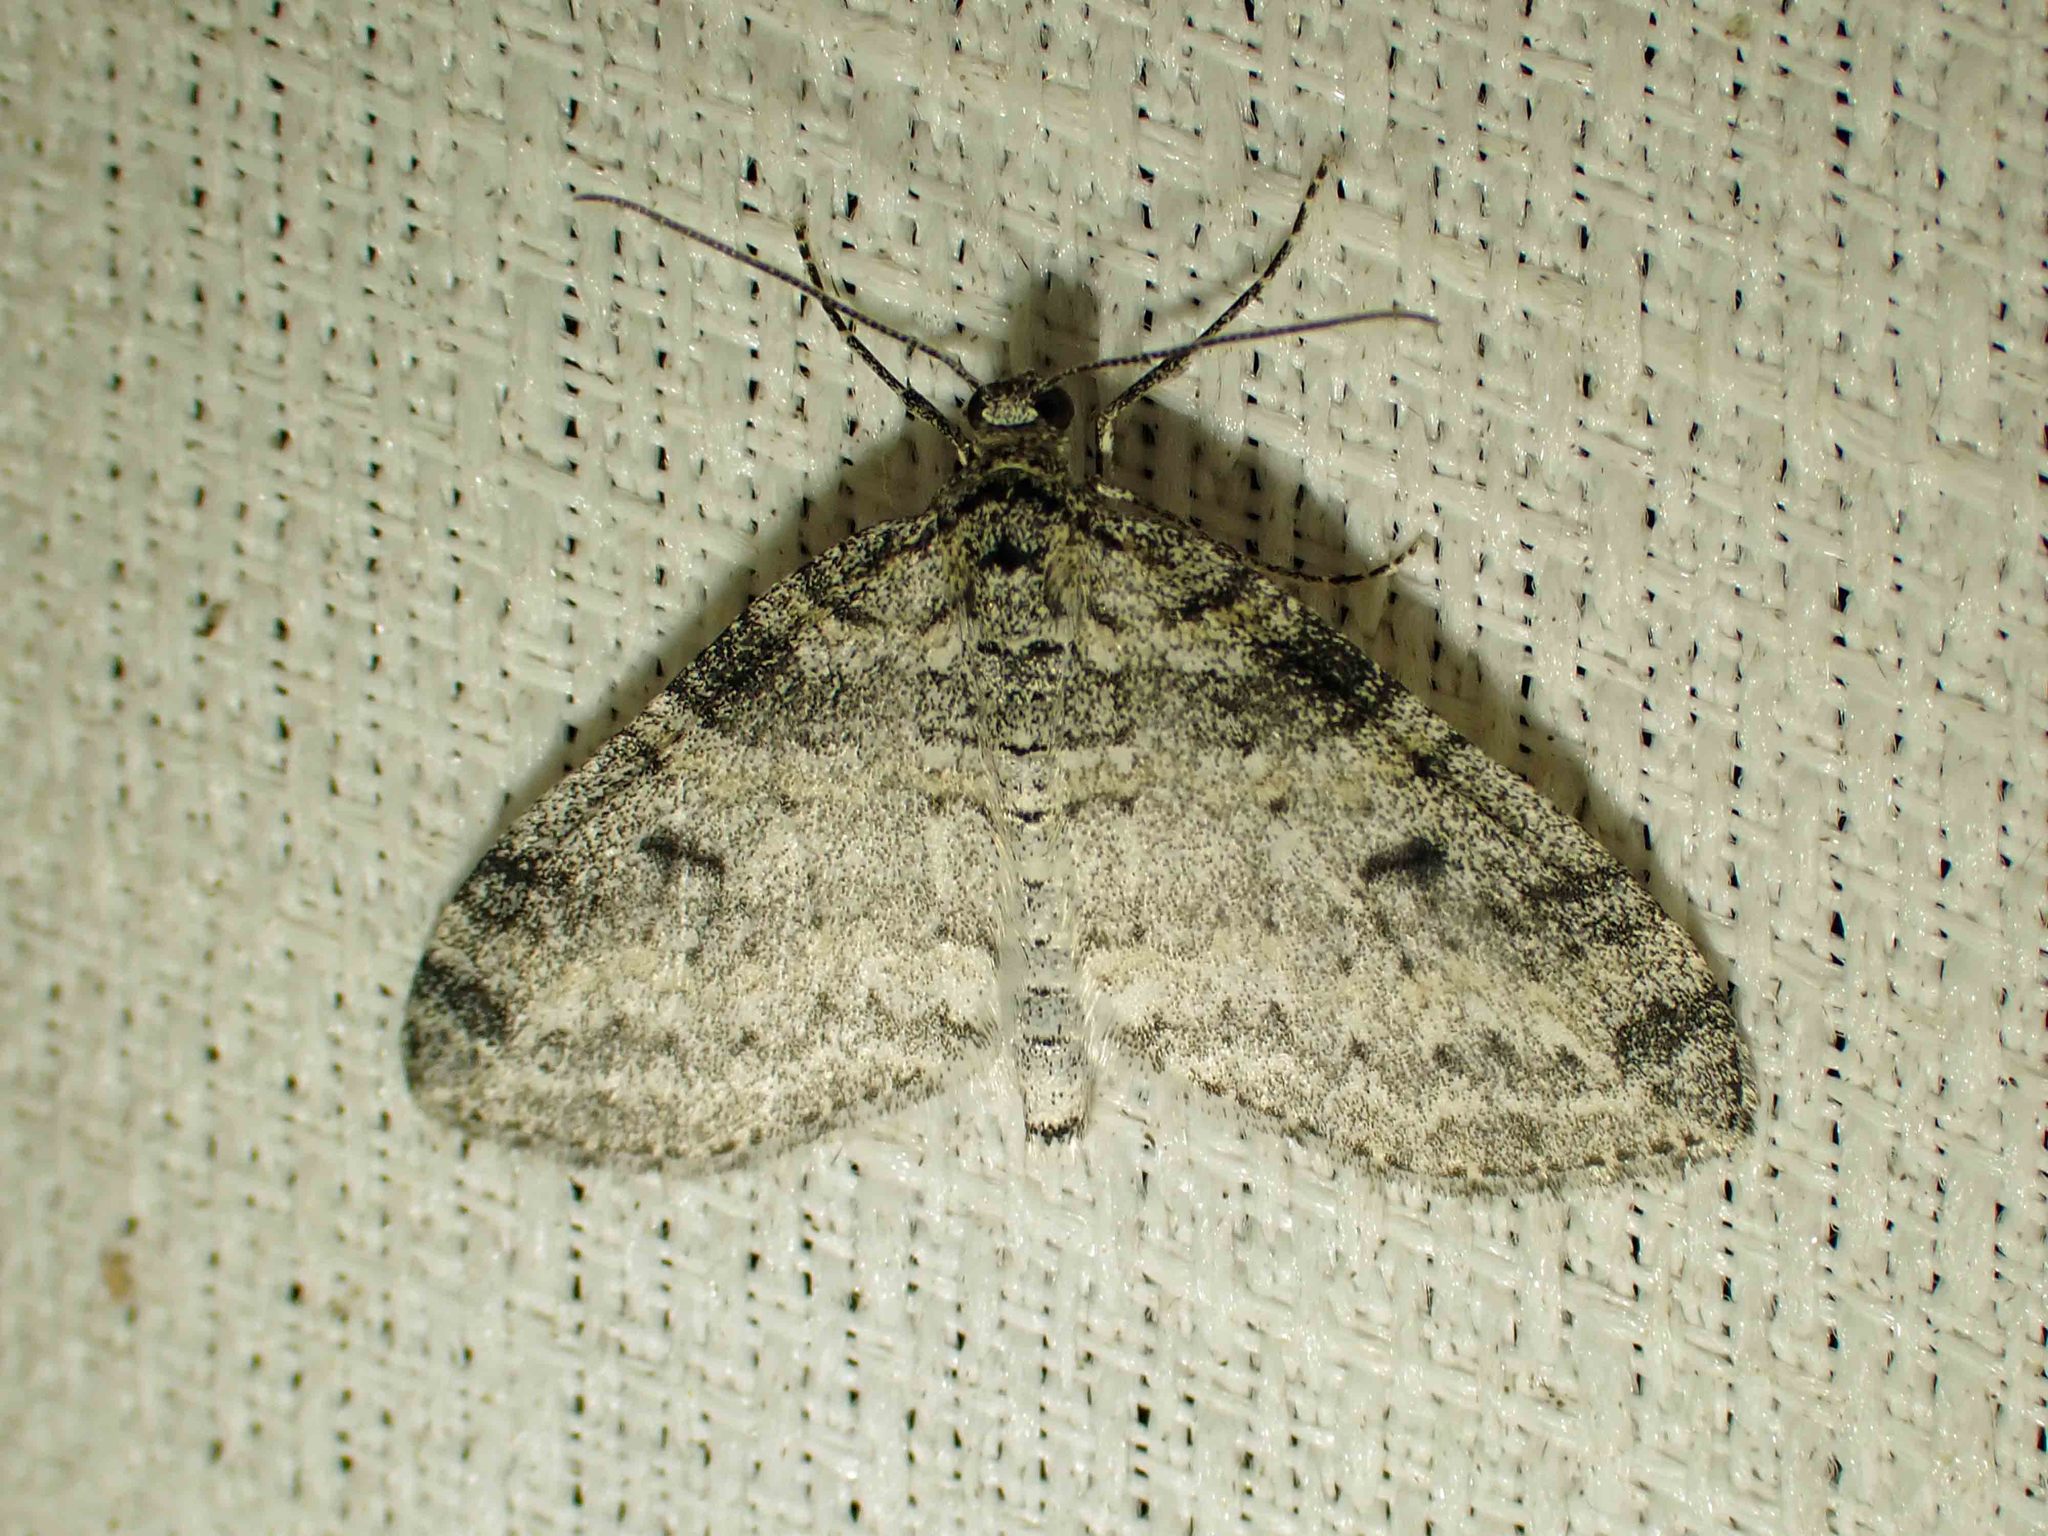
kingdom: Animalia
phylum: Arthropoda
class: Insecta
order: Lepidoptera
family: Geometridae
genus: Lobophora
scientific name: Lobophora nivigerata
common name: Powdered bigwing
